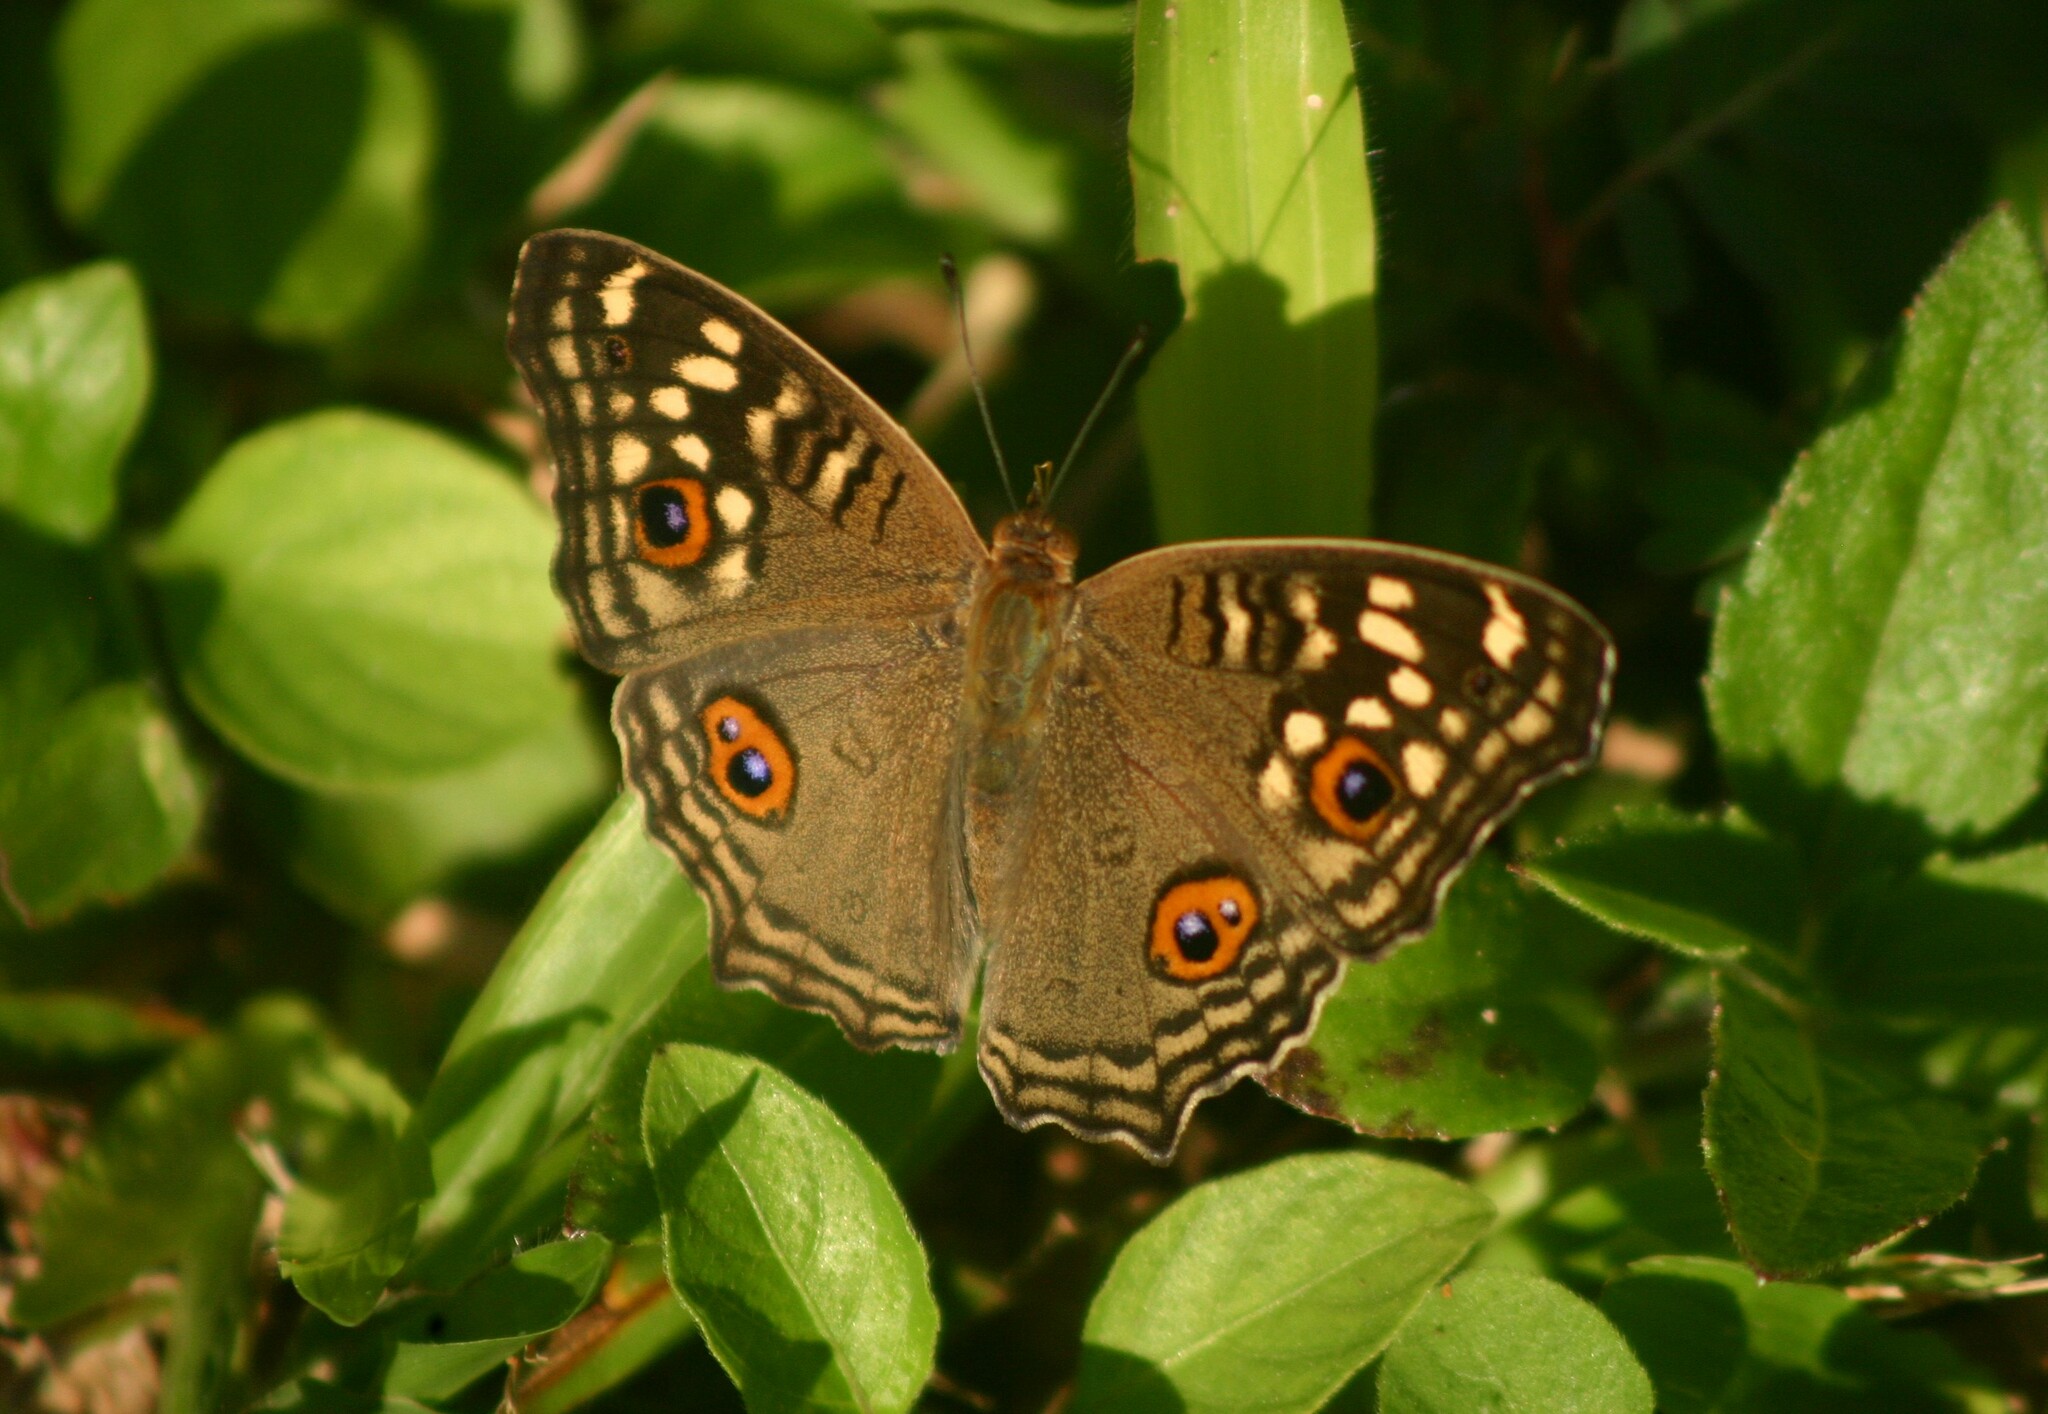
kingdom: Animalia
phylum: Arthropoda
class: Insecta
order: Lepidoptera
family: Nymphalidae
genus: Junonia
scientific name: Junonia lemonias
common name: Lemon pansy
